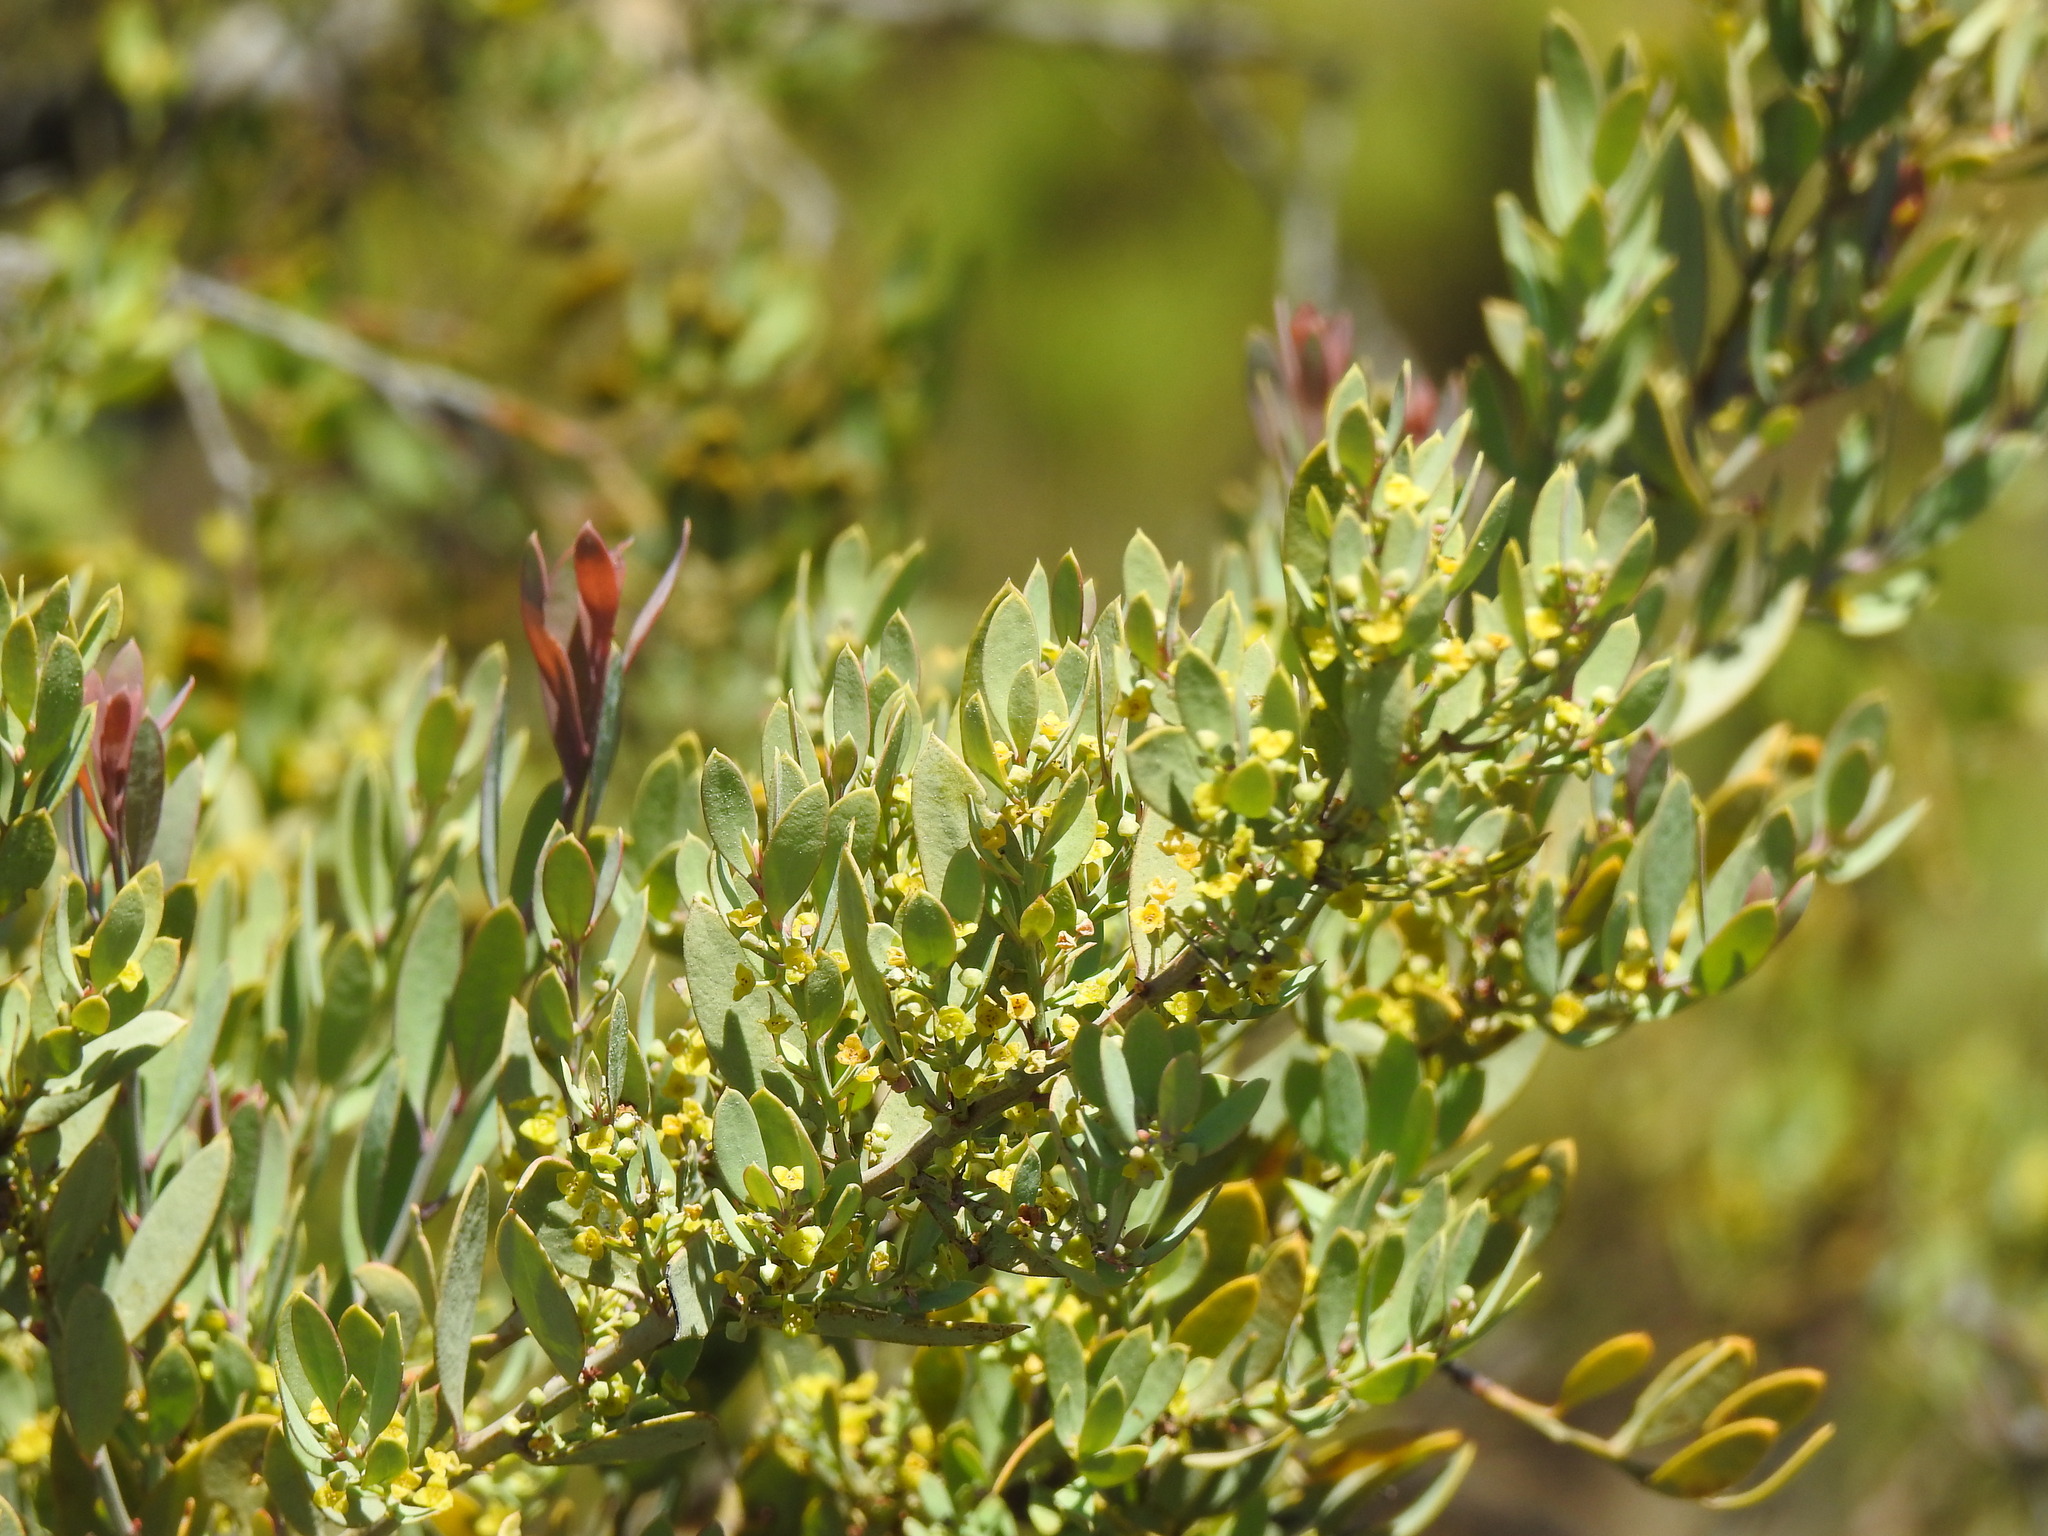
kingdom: Plantae
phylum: Tracheophyta
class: Magnoliopsida
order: Santalales
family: Santalaceae
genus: Osyris
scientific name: Osyris lanceolata
